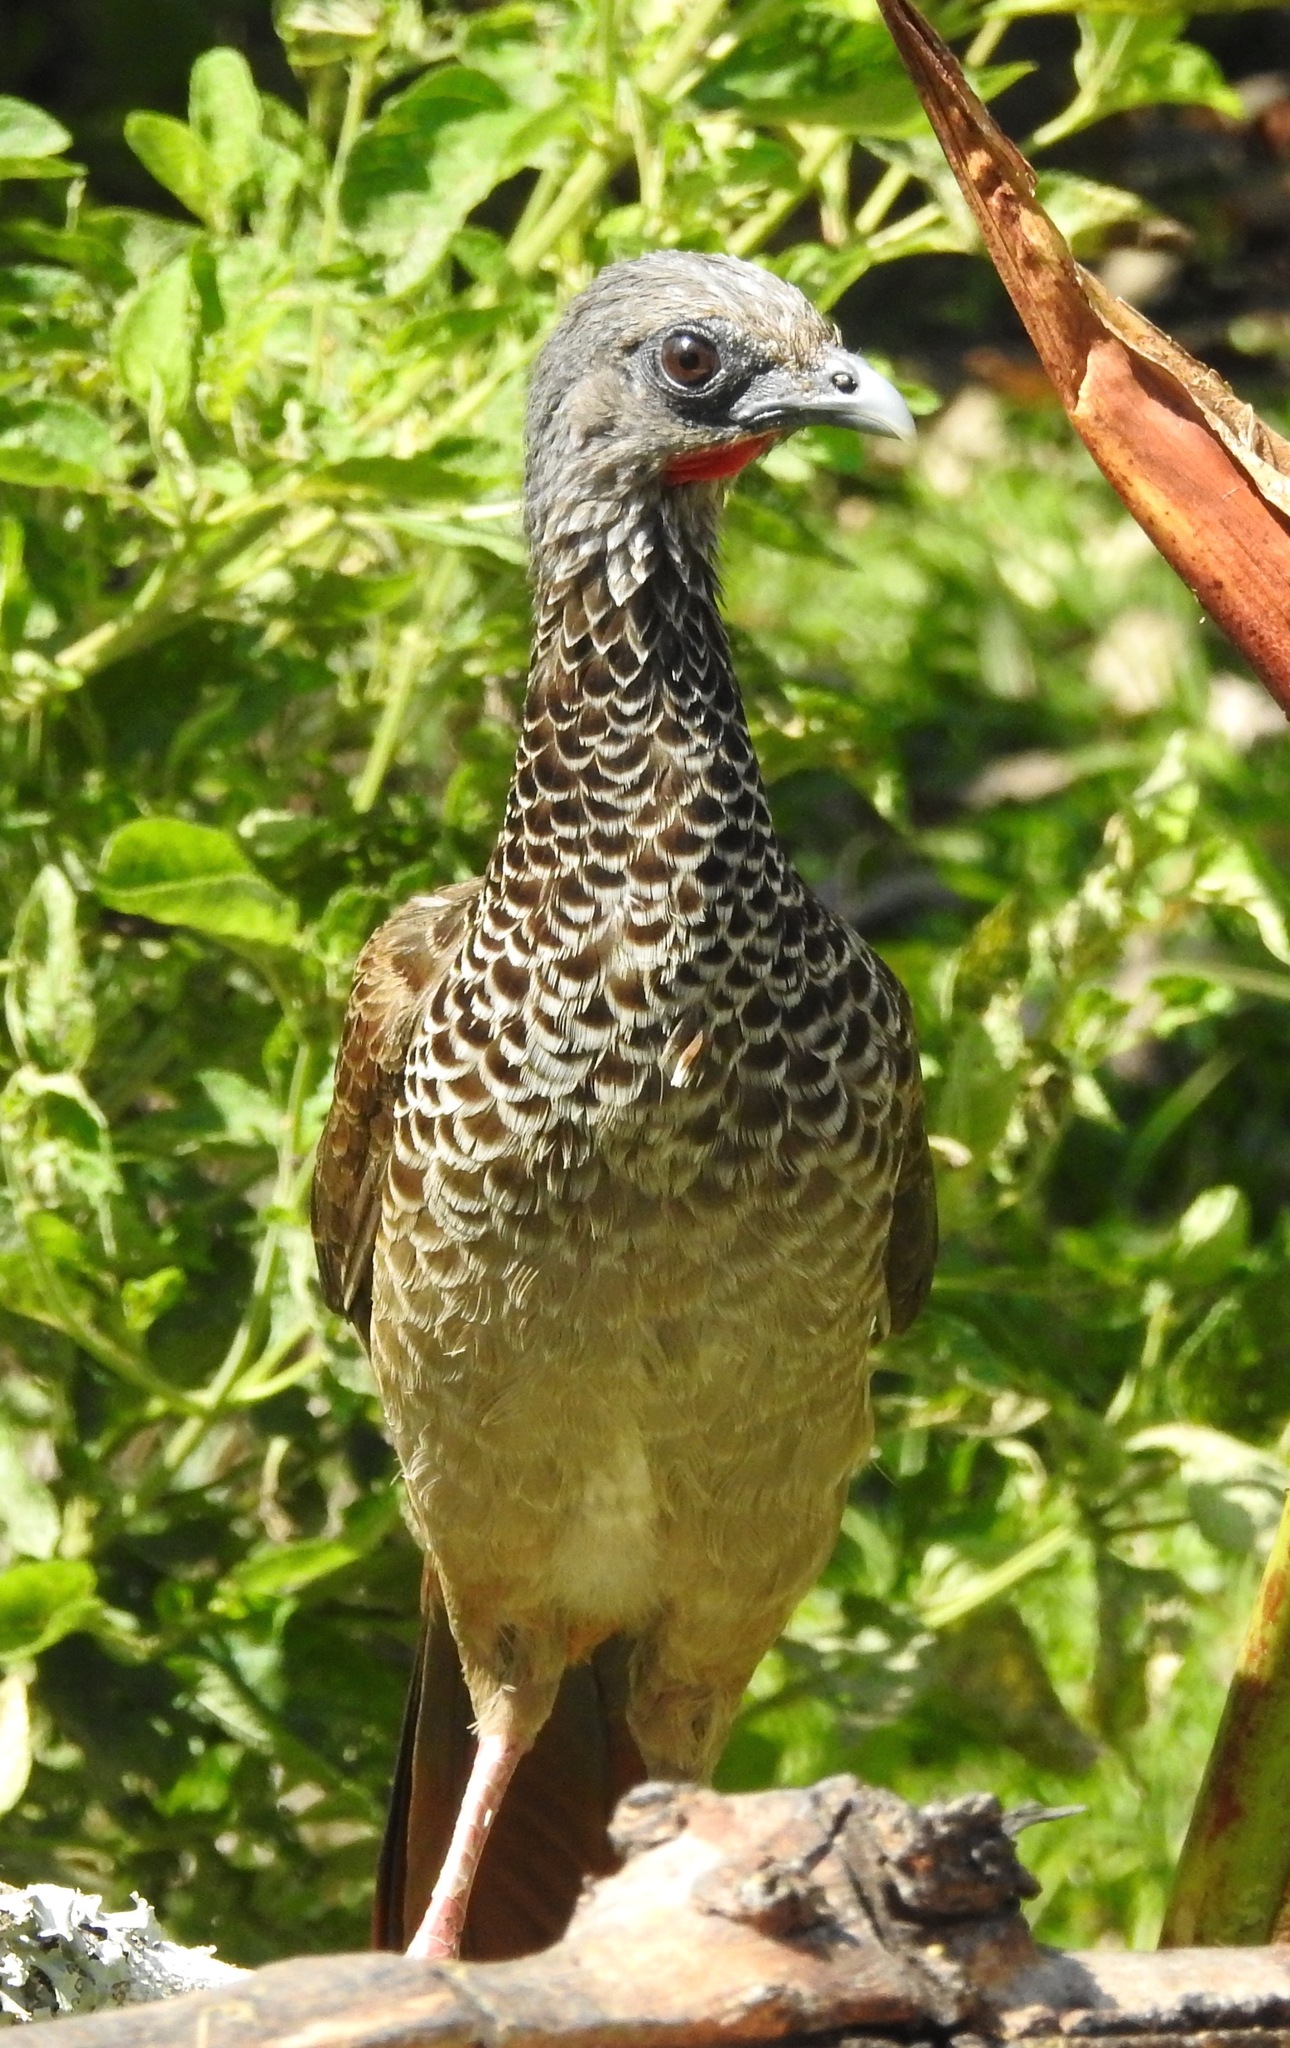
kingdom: Animalia
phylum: Chordata
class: Aves
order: Galliformes
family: Cracidae
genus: Ortalis
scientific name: Ortalis columbiana
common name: Colombian chachalaca
